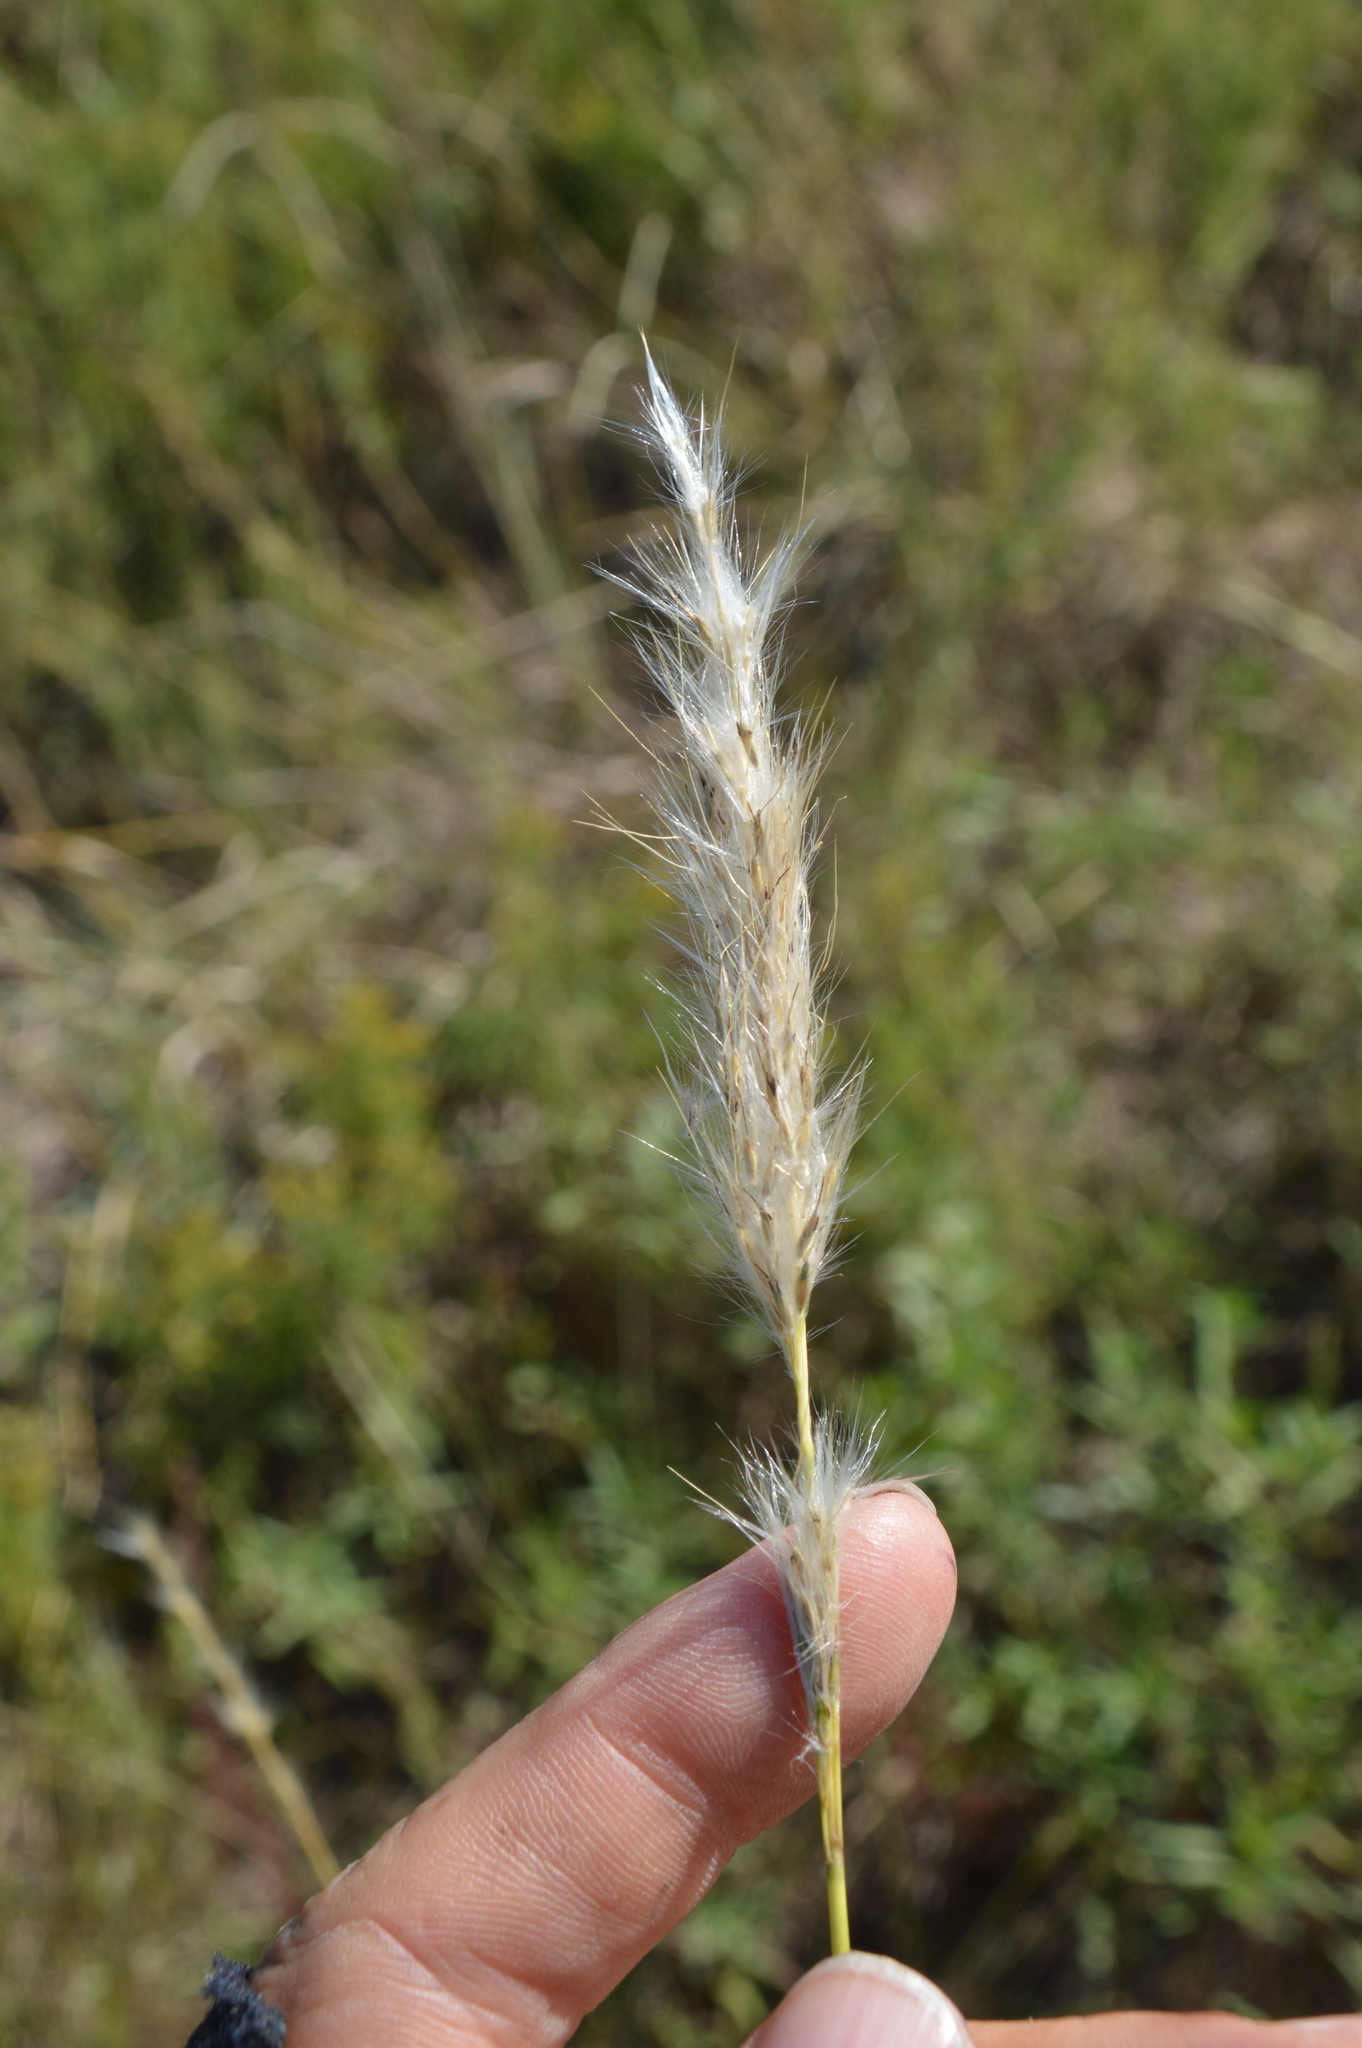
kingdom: Plantae
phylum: Tracheophyta
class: Liliopsida
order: Poales
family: Poaceae
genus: Bothriochloa
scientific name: Bothriochloa torreyana
